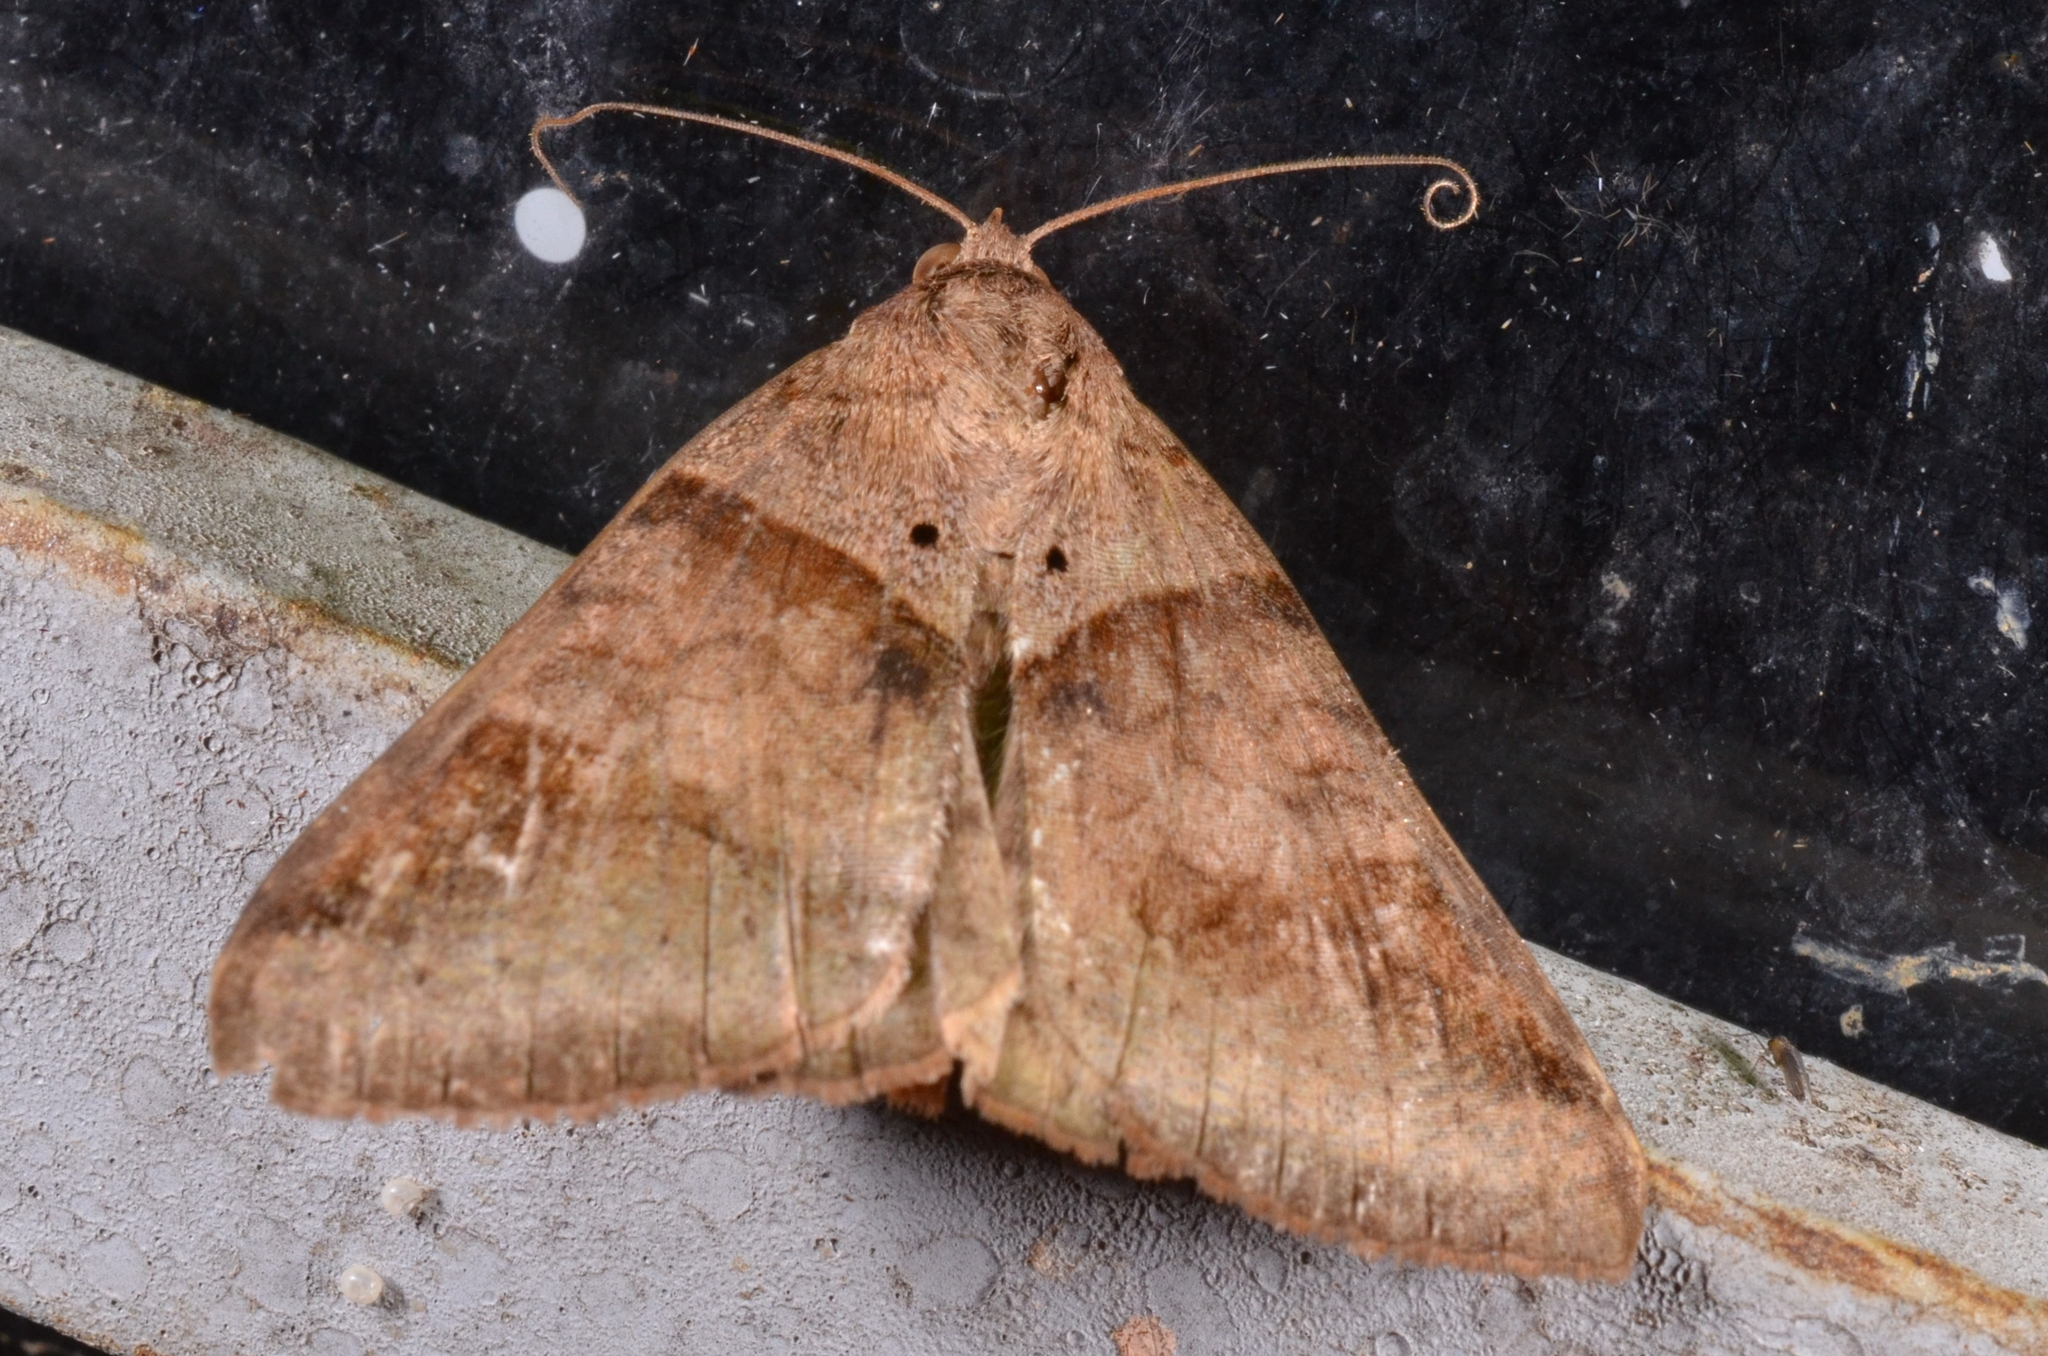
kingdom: Animalia
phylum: Arthropoda
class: Insecta
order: Lepidoptera
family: Erebidae
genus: Mocis
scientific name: Mocis undata
